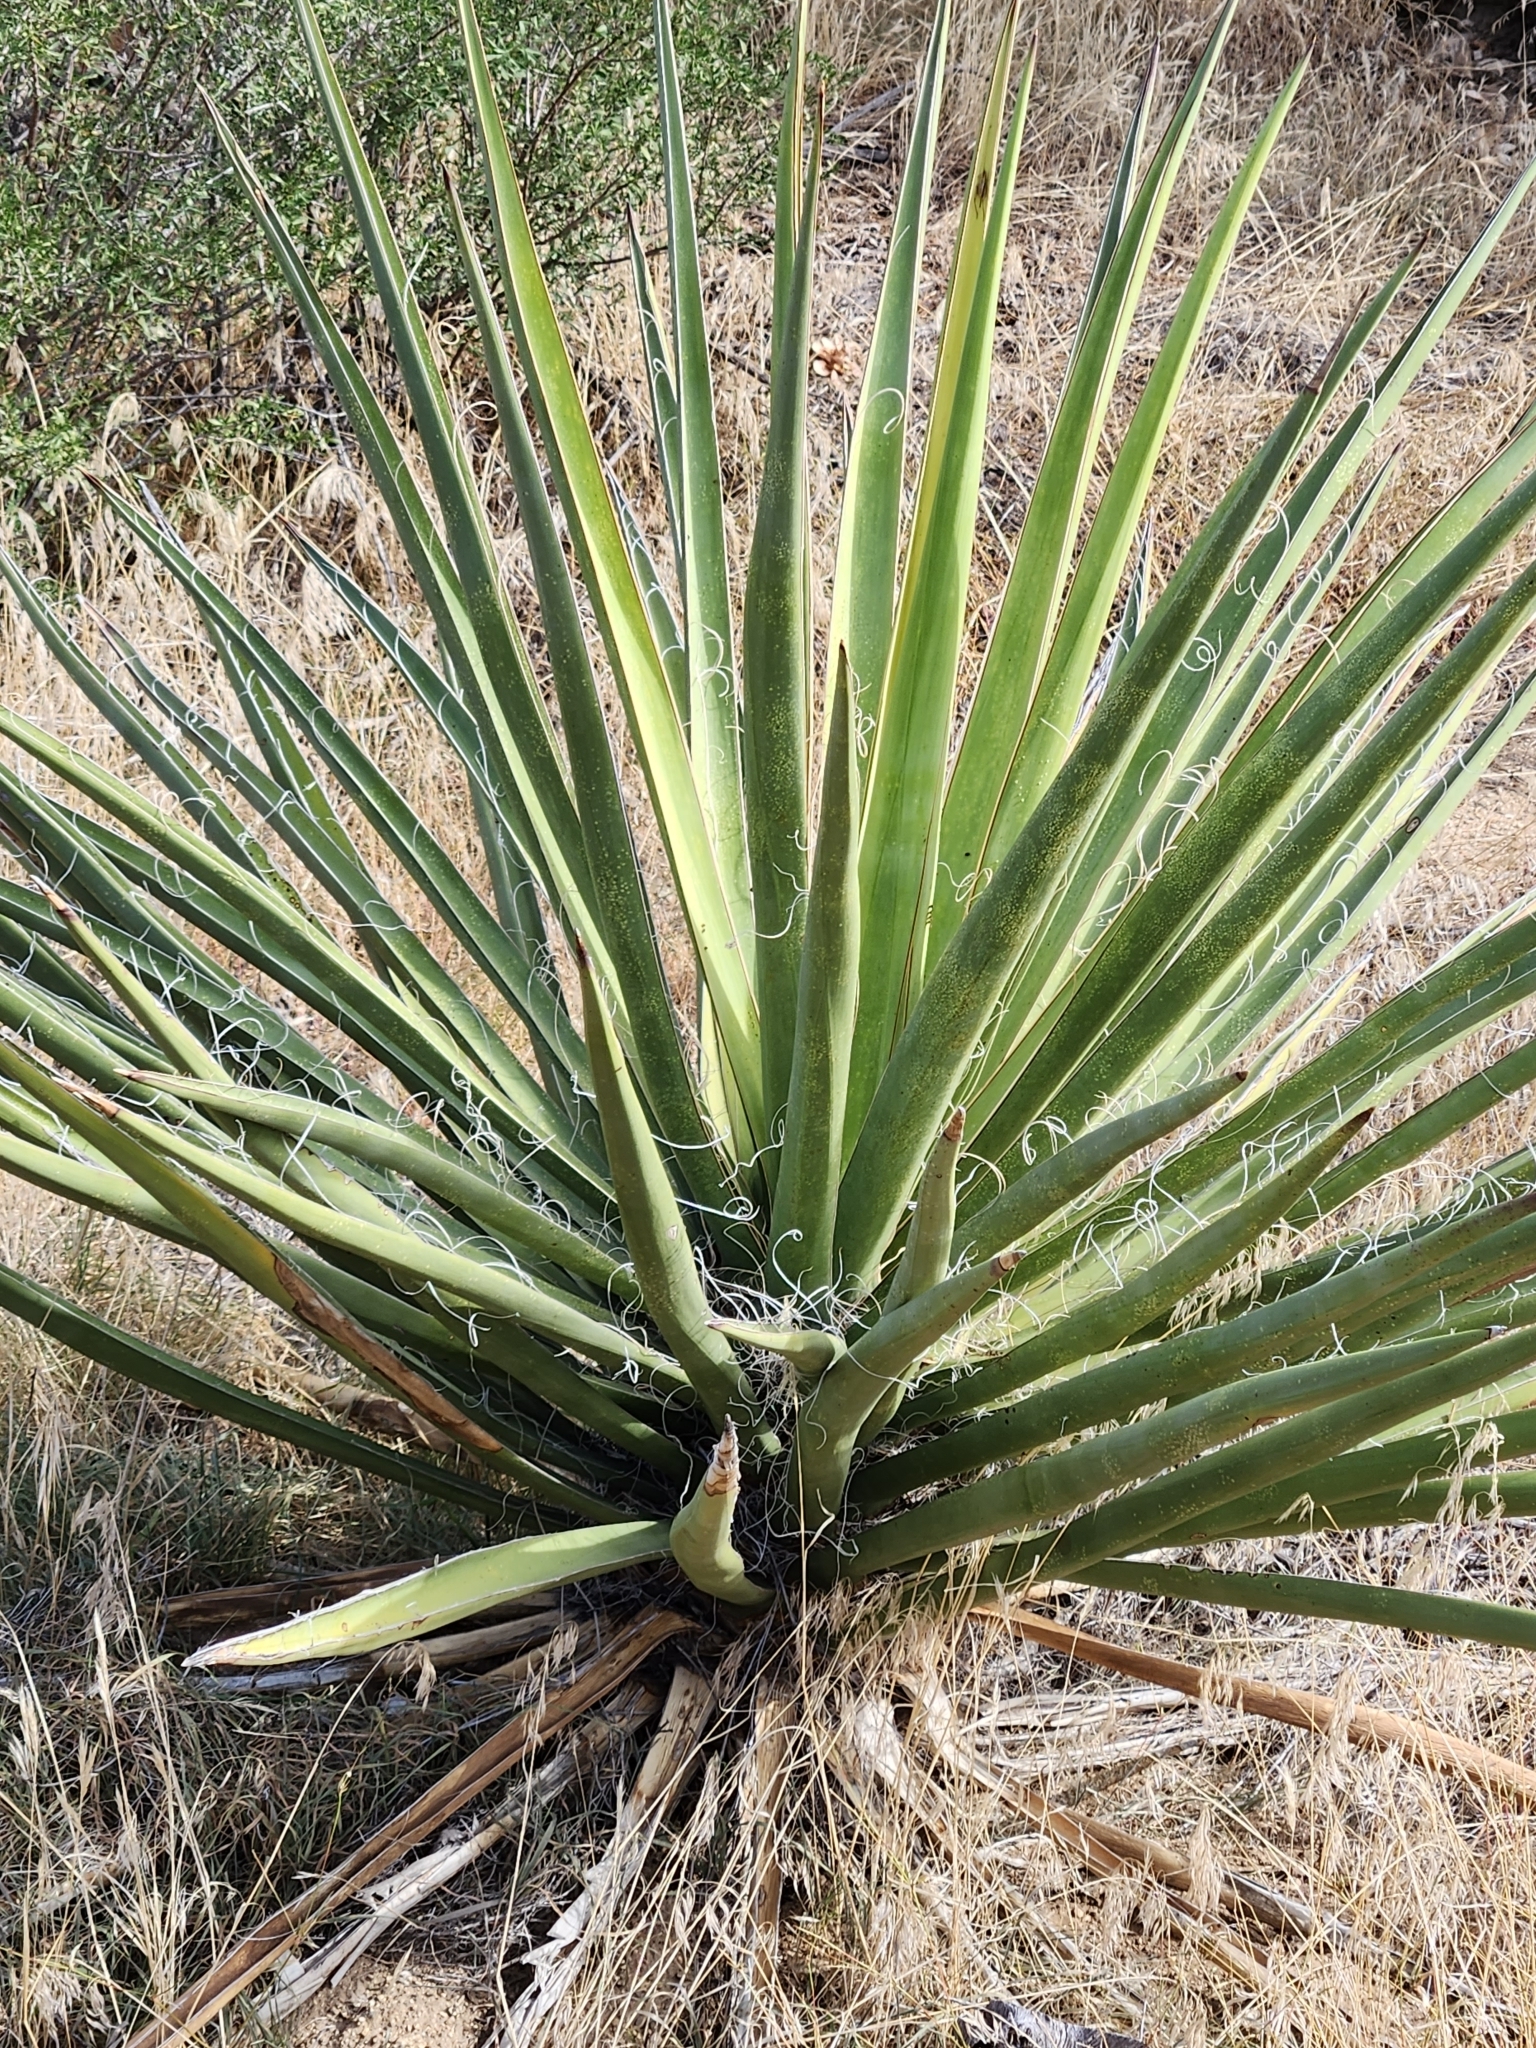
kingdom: Plantae
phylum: Tracheophyta
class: Liliopsida
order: Asparagales
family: Asparagaceae
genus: Yucca
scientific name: Yucca schidigera
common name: Mojave yucca
